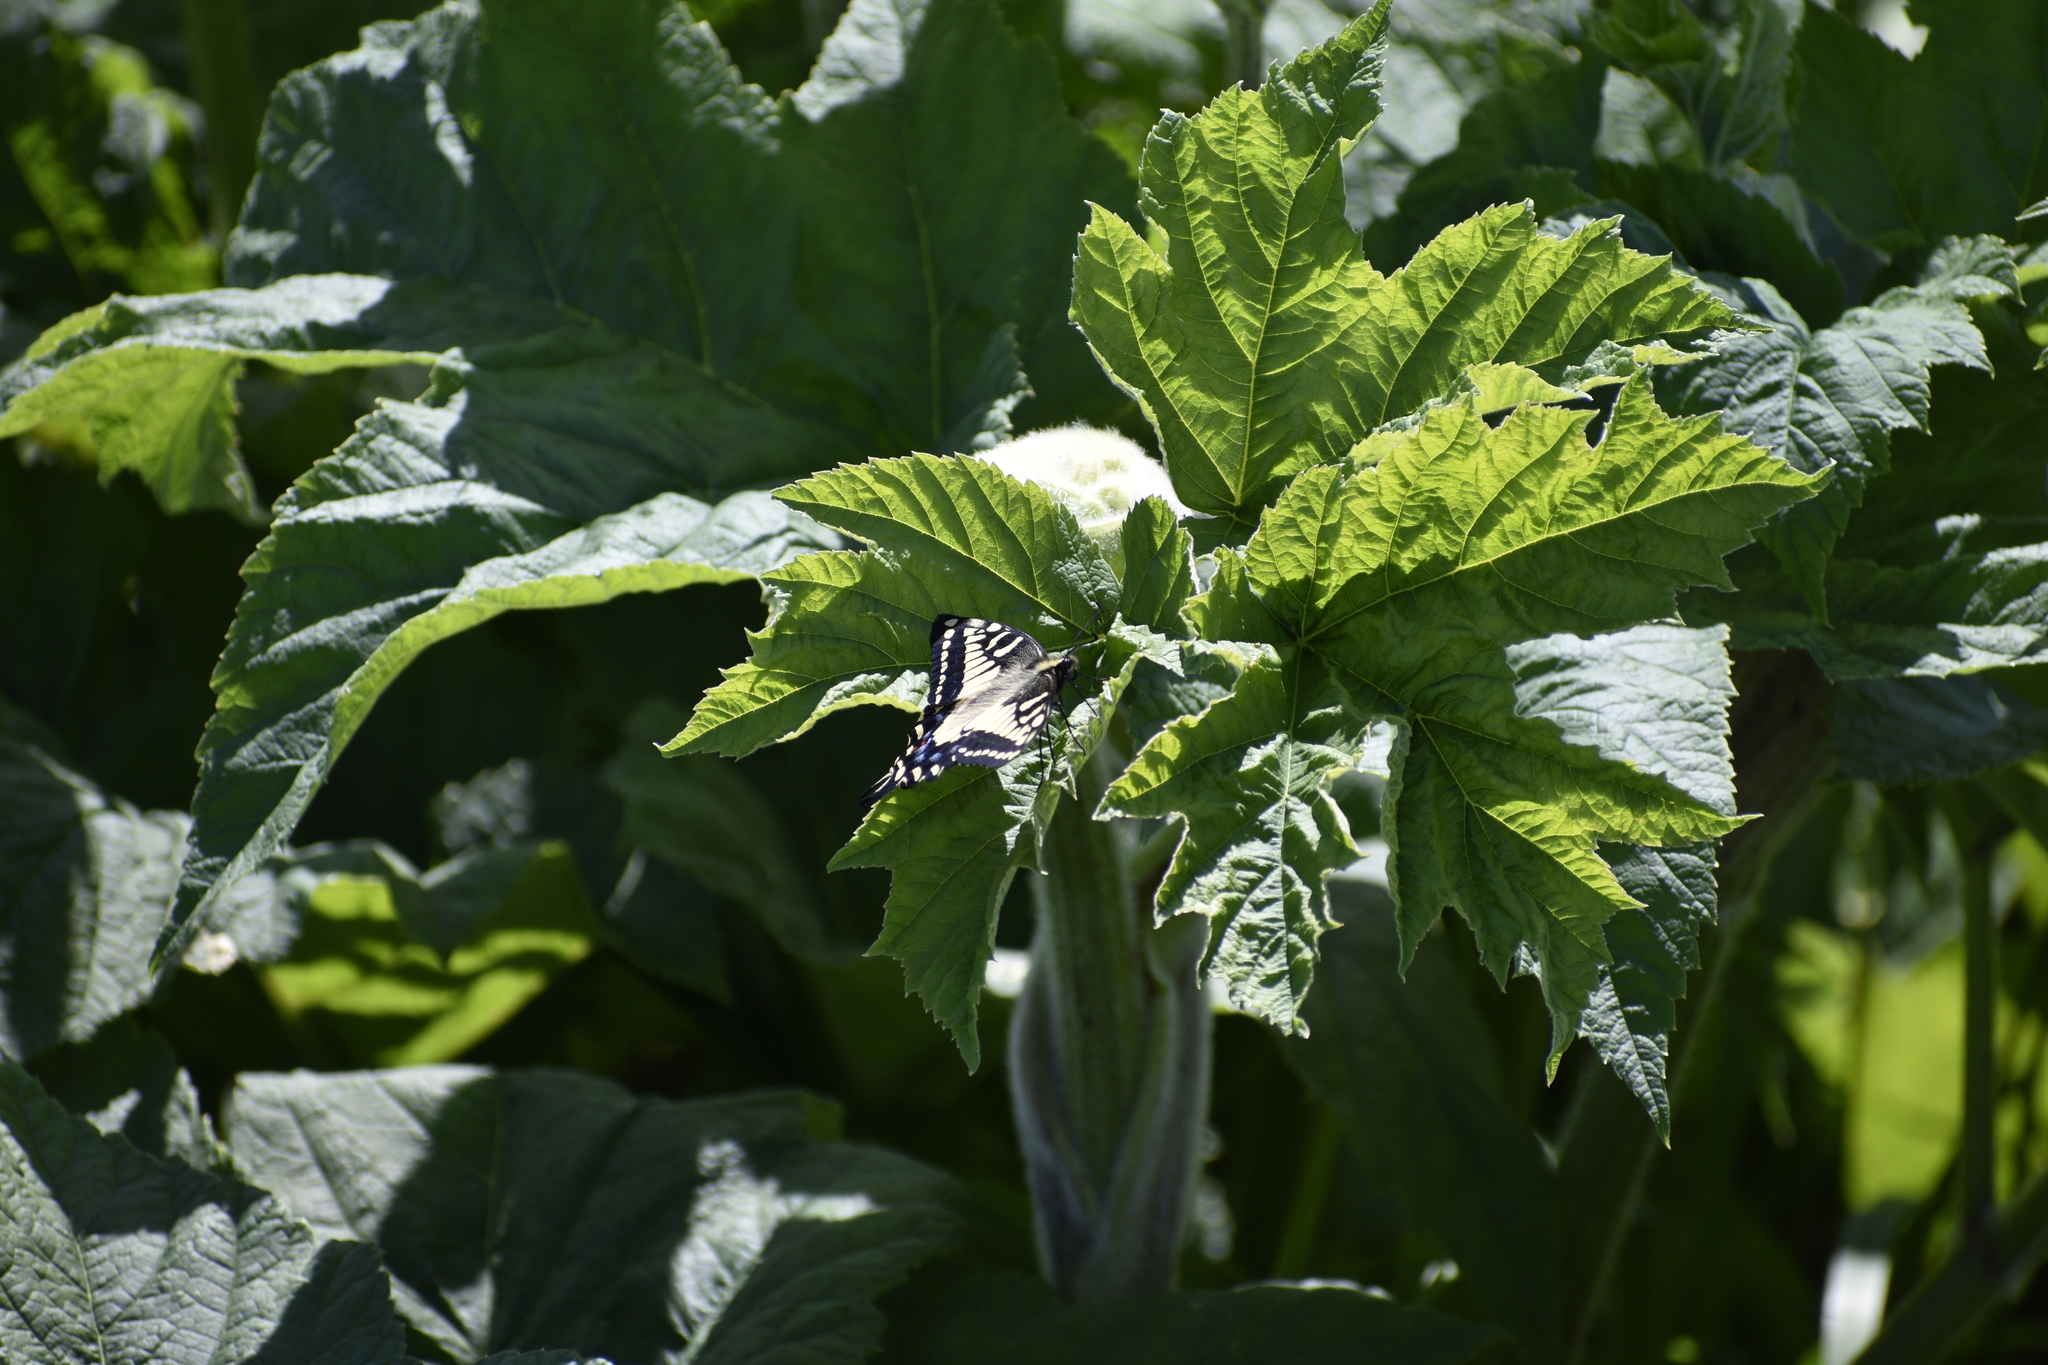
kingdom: Animalia
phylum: Arthropoda
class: Insecta
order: Lepidoptera
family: Papilionidae
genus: Papilio
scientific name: Papilio zelicaon
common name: Anise swallowtail
